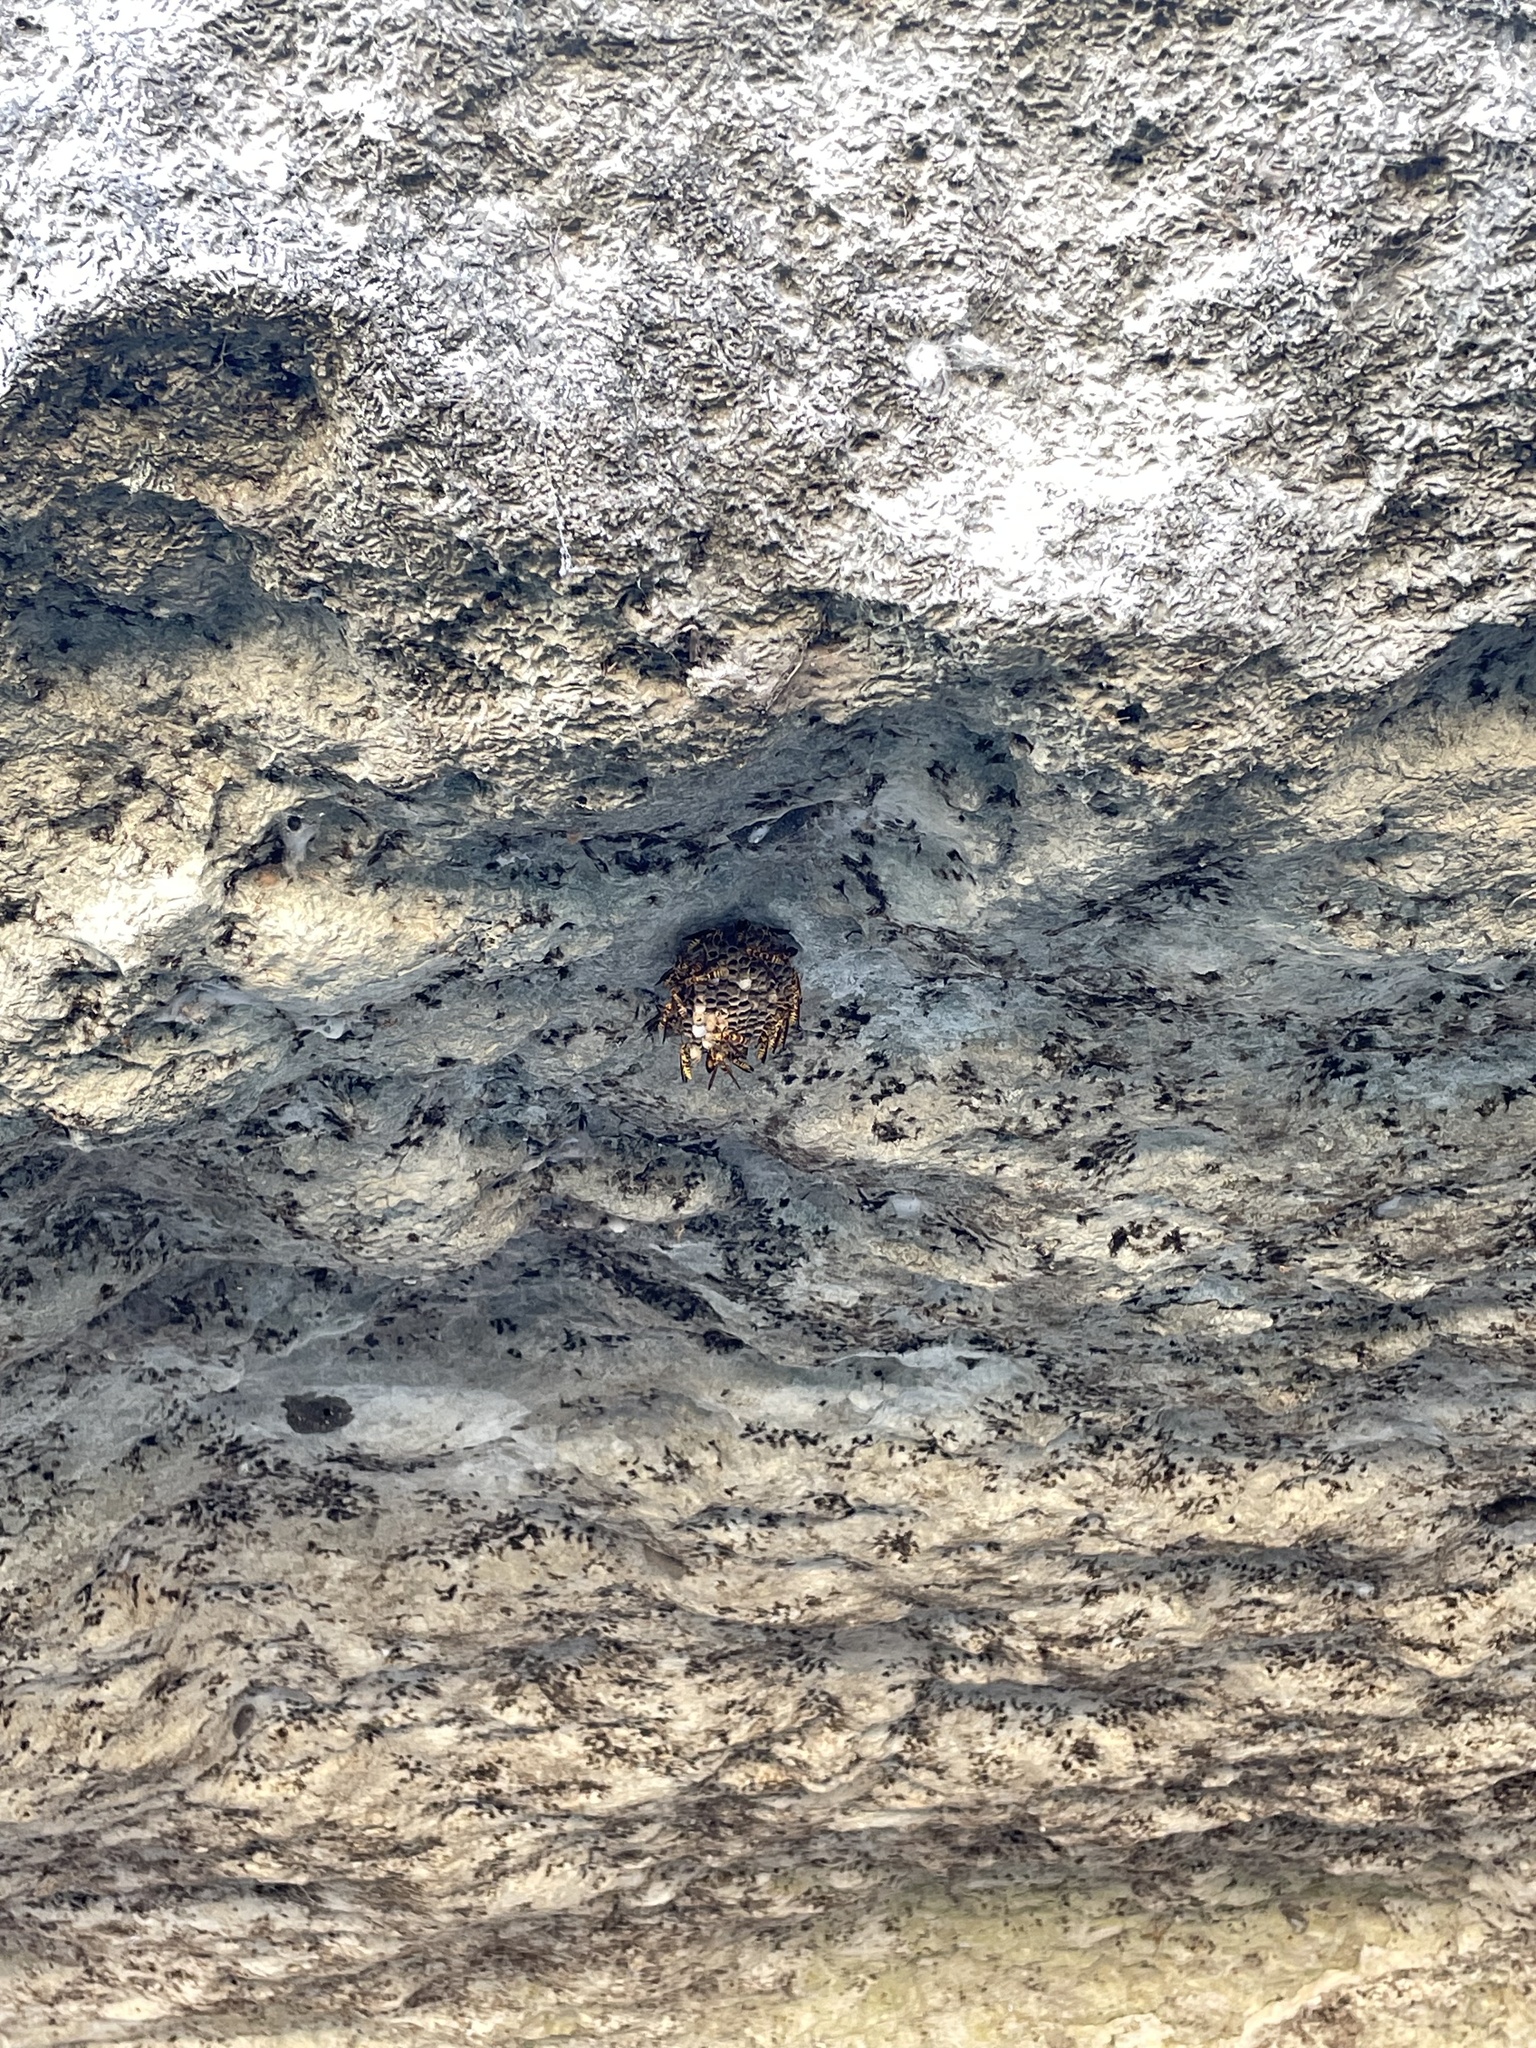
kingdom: Animalia
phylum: Arthropoda
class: Insecta
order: Hymenoptera
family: Eumenidae
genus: Polistes
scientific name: Polistes exclamans
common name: Paper wasp
